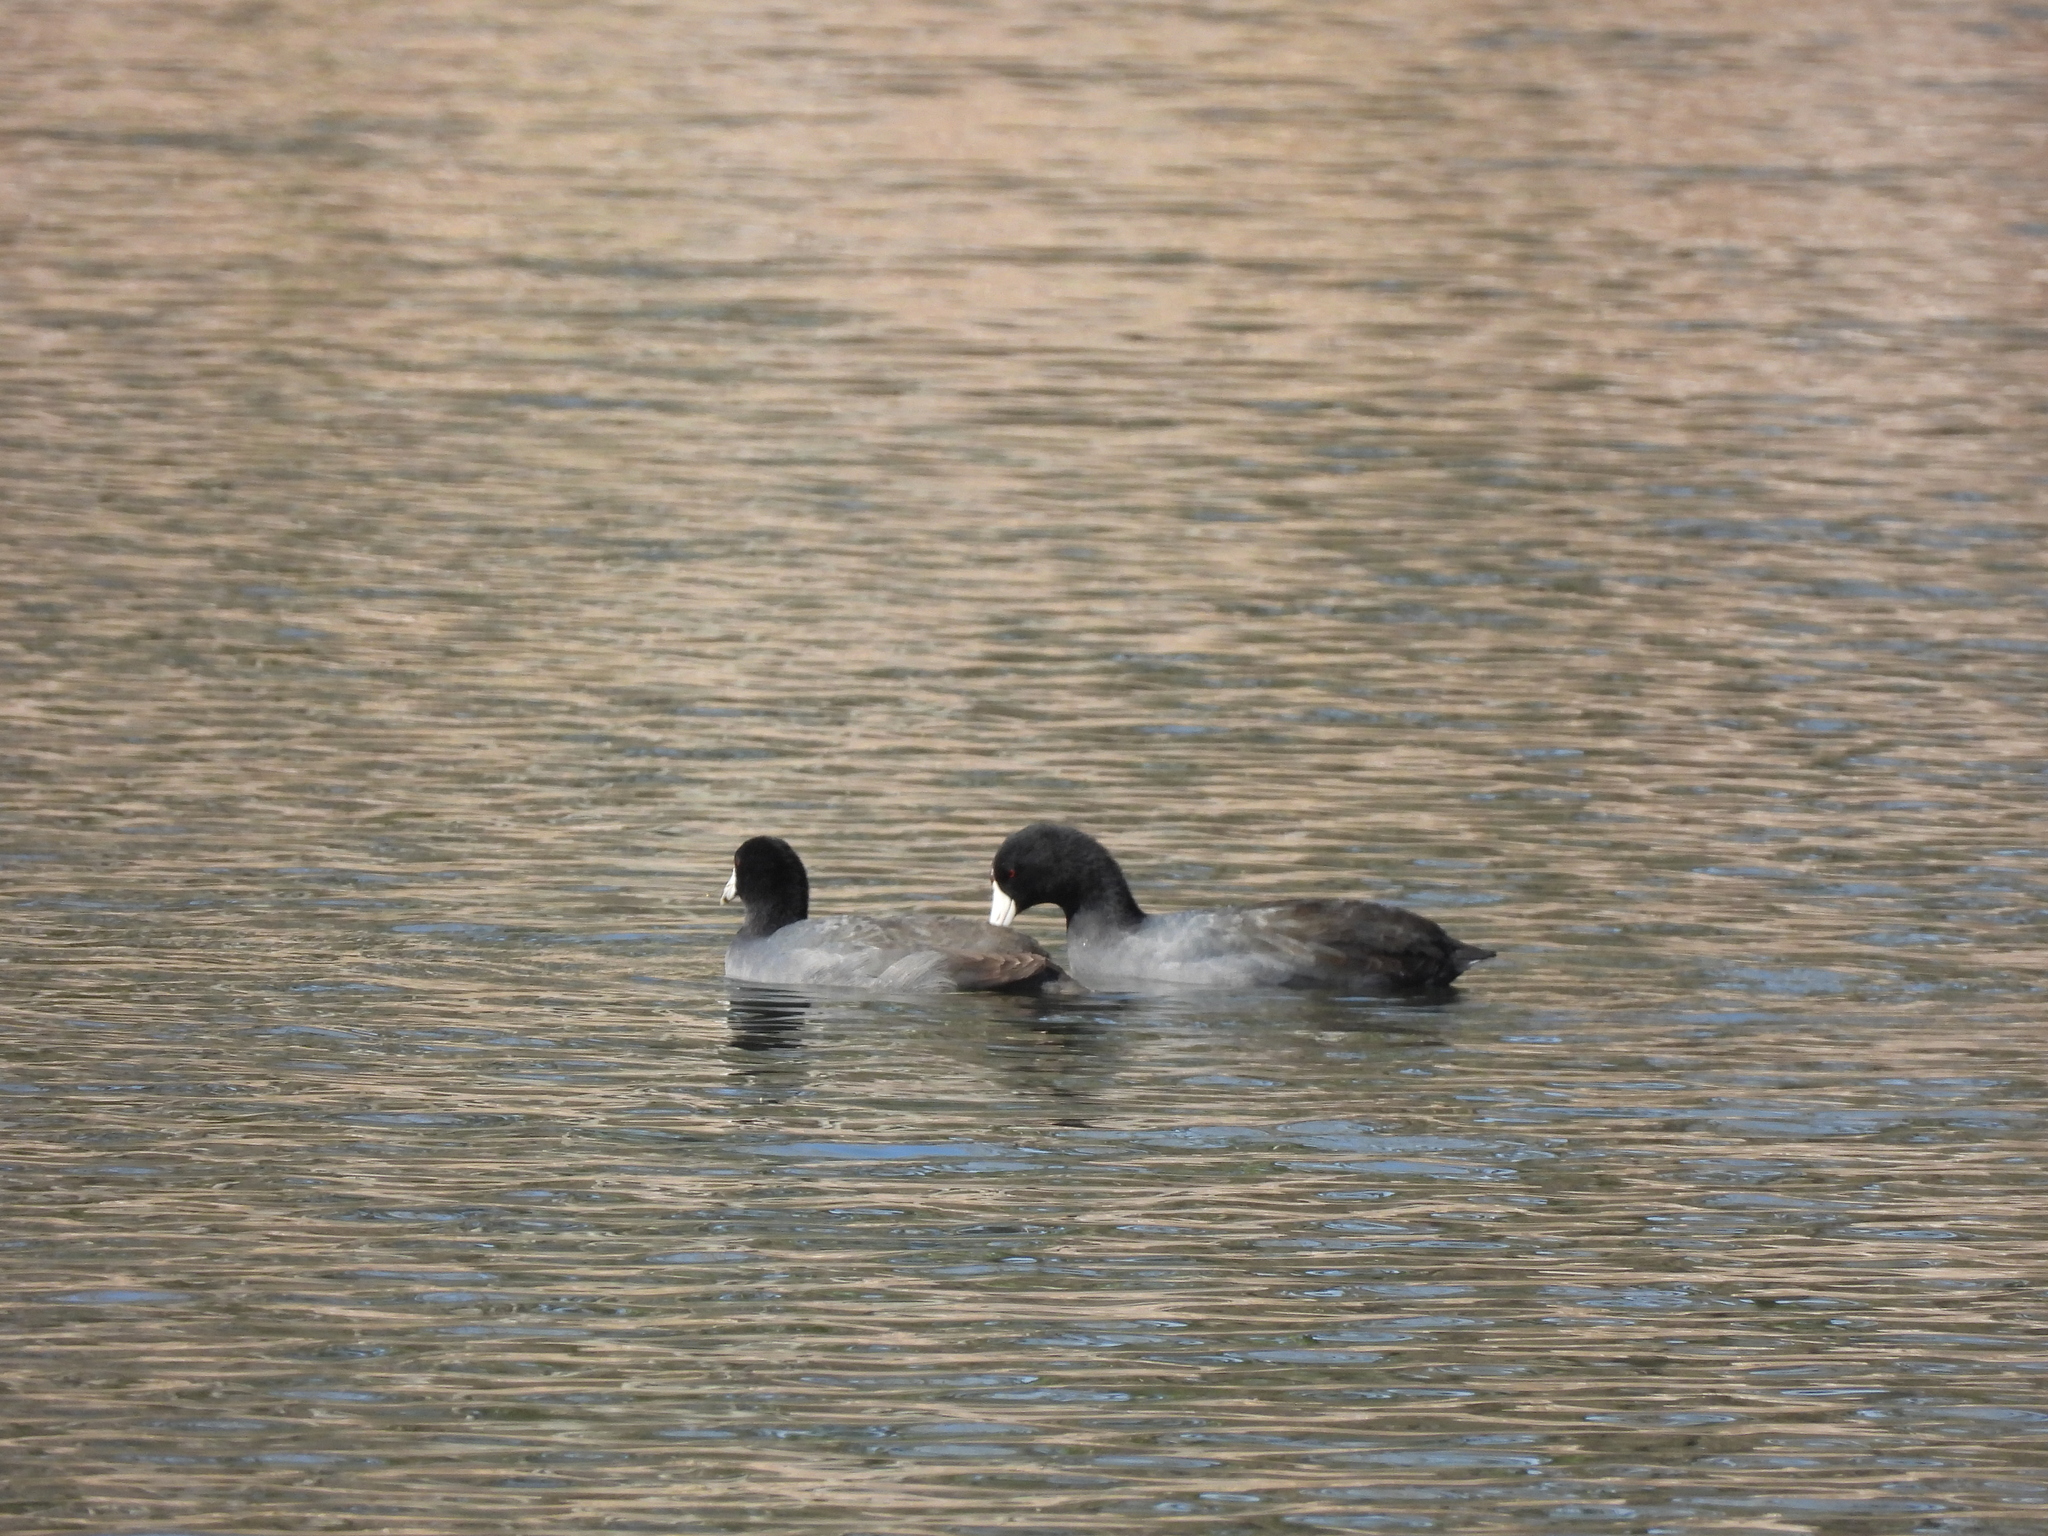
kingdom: Animalia
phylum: Chordata
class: Aves
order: Gruiformes
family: Rallidae
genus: Fulica
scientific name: Fulica americana
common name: American coot
